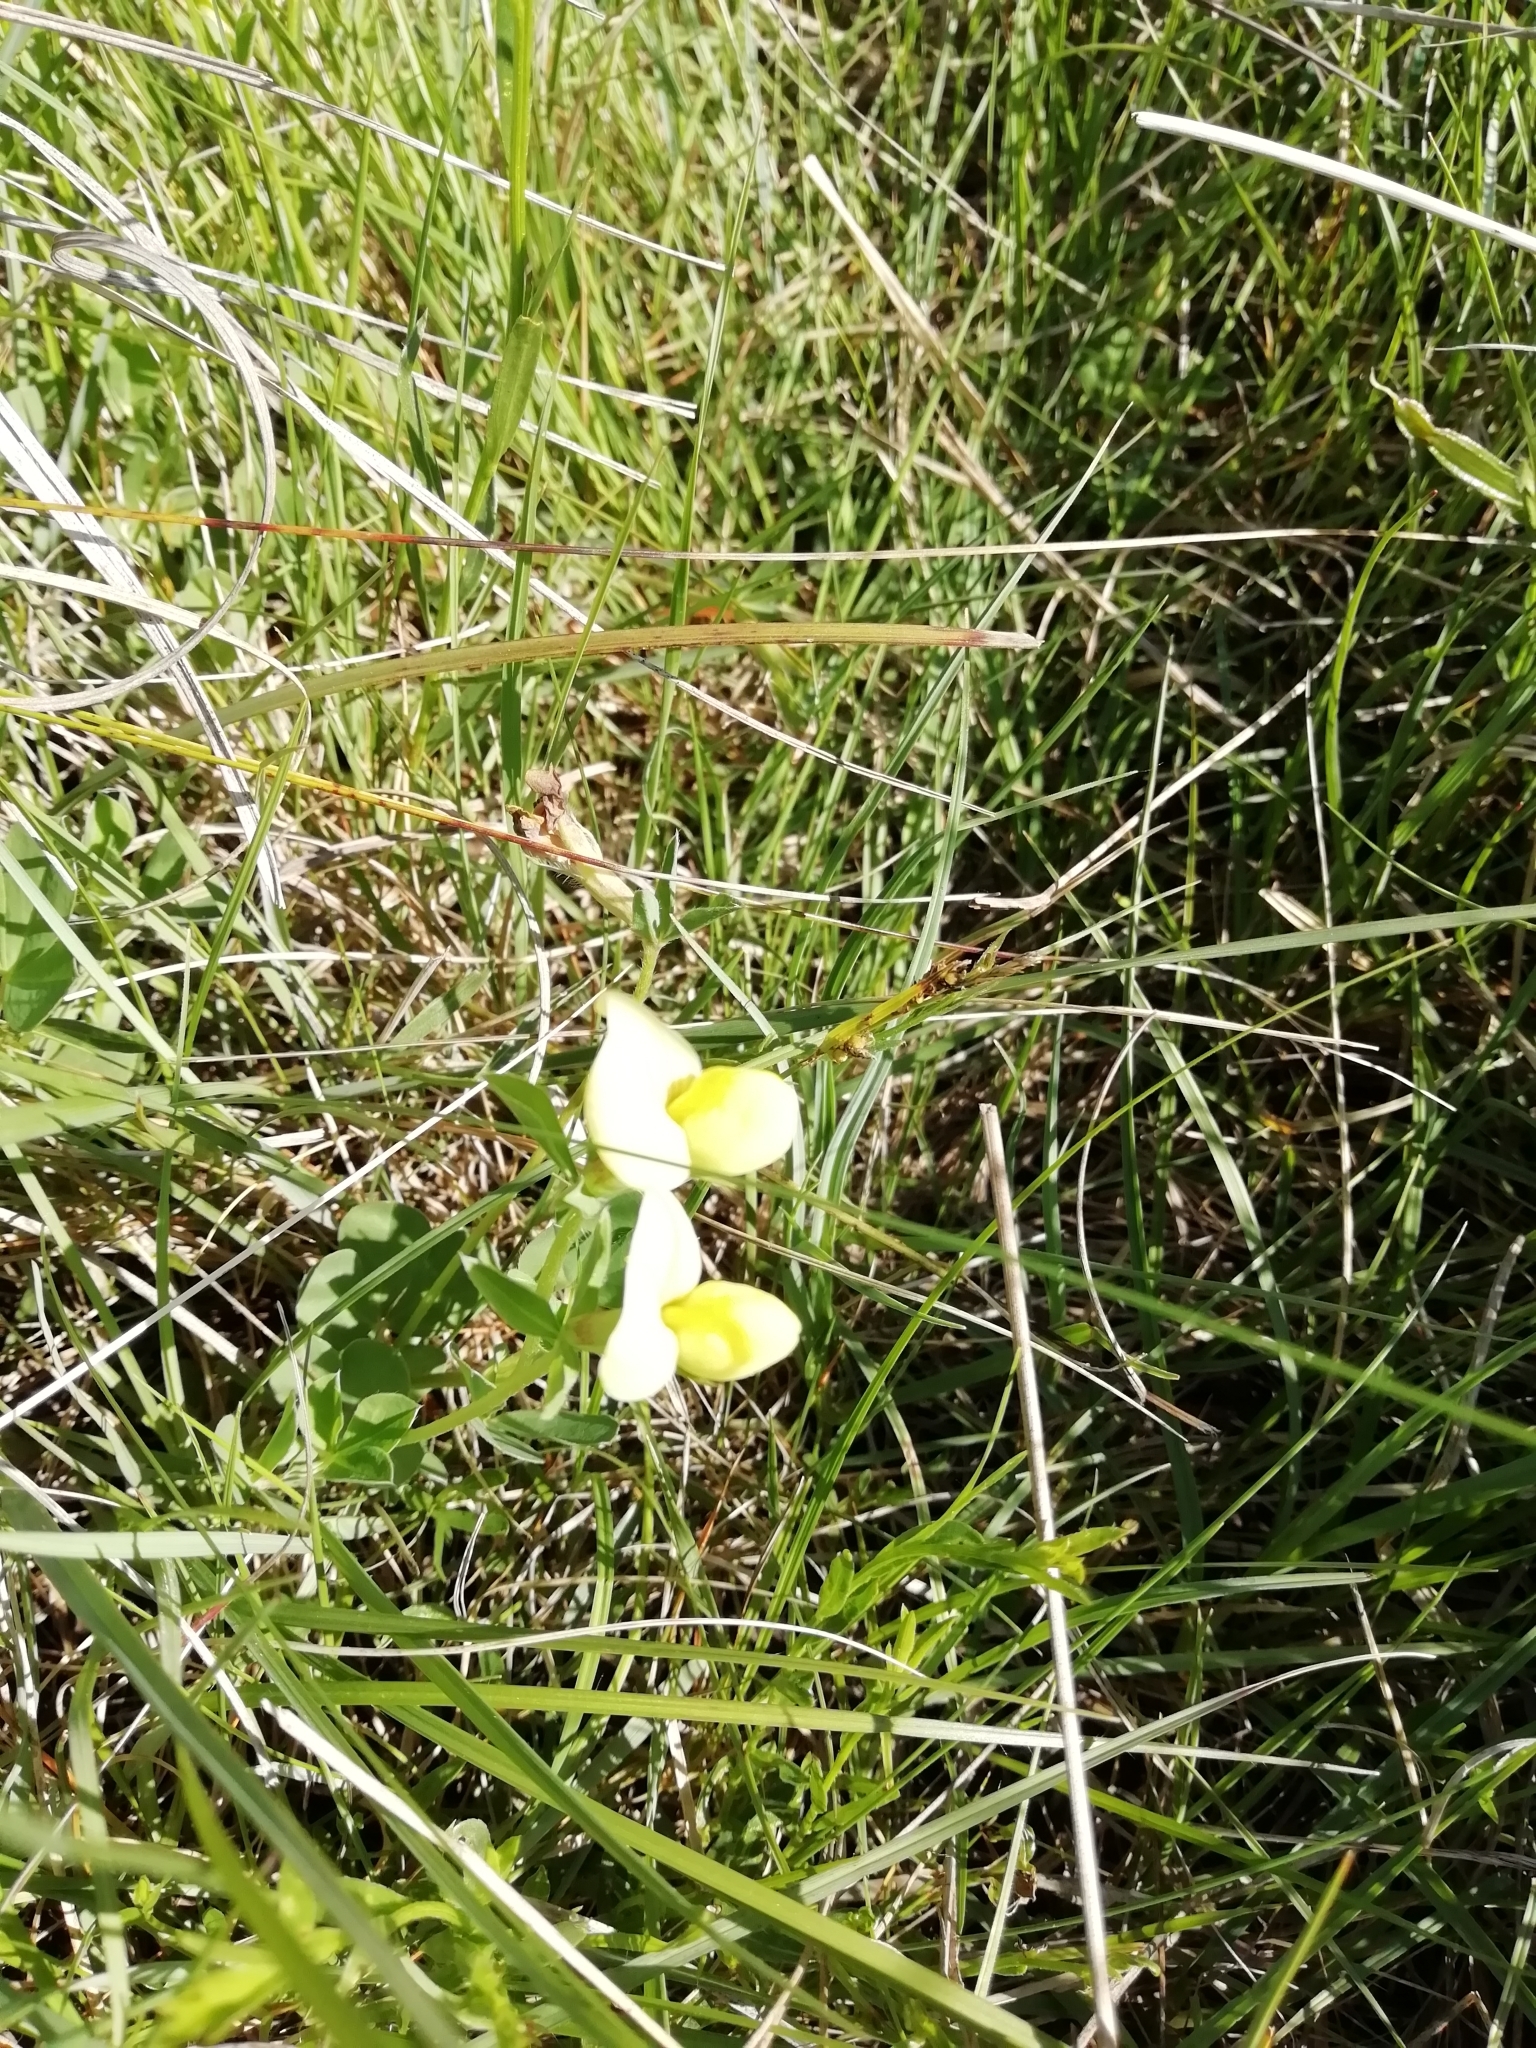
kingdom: Plantae
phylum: Tracheophyta
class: Magnoliopsida
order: Fabales
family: Fabaceae
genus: Lotus
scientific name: Lotus maritimus
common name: Dragon's-teeth
